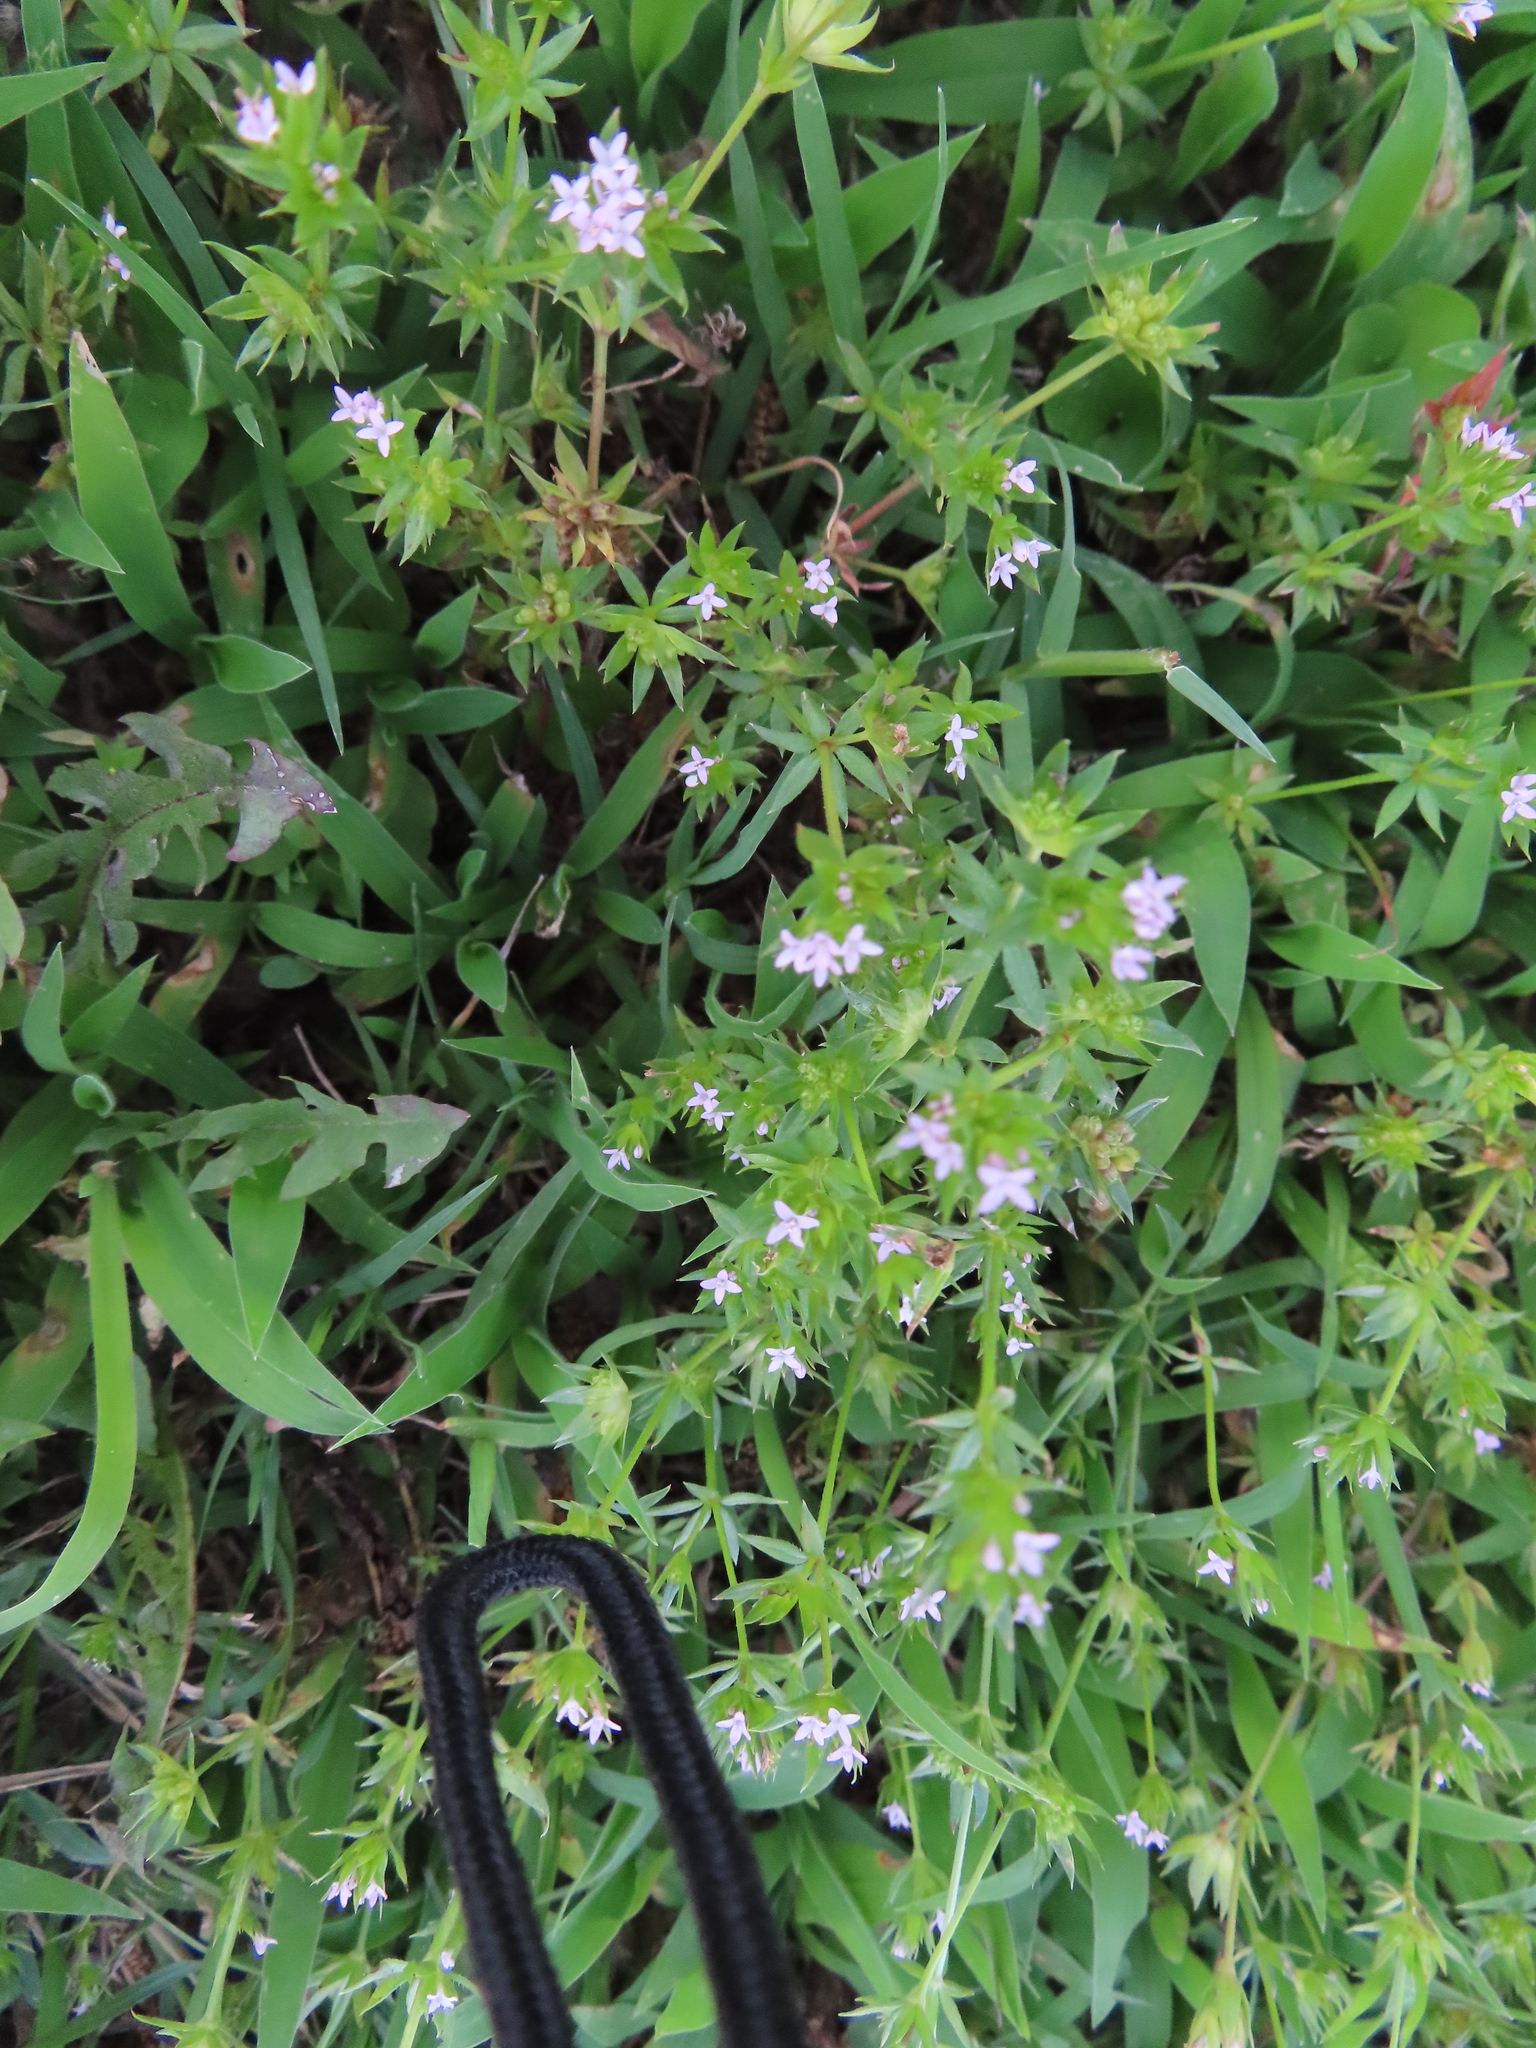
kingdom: Plantae
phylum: Tracheophyta
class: Magnoliopsida
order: Gentianales
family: Rubiaceae
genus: Sherardia
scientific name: Sherardia arvensis
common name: Field madder
